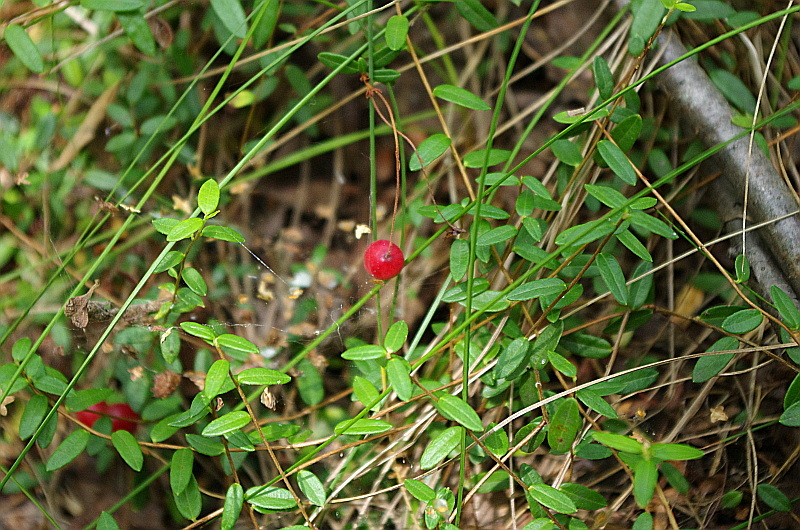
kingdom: Plantae
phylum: Tracheophyta
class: Magnoliopsida
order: Ericales
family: Ericaceae
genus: Vaccinium
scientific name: Vaccinium oxycoccos
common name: Cranberry
